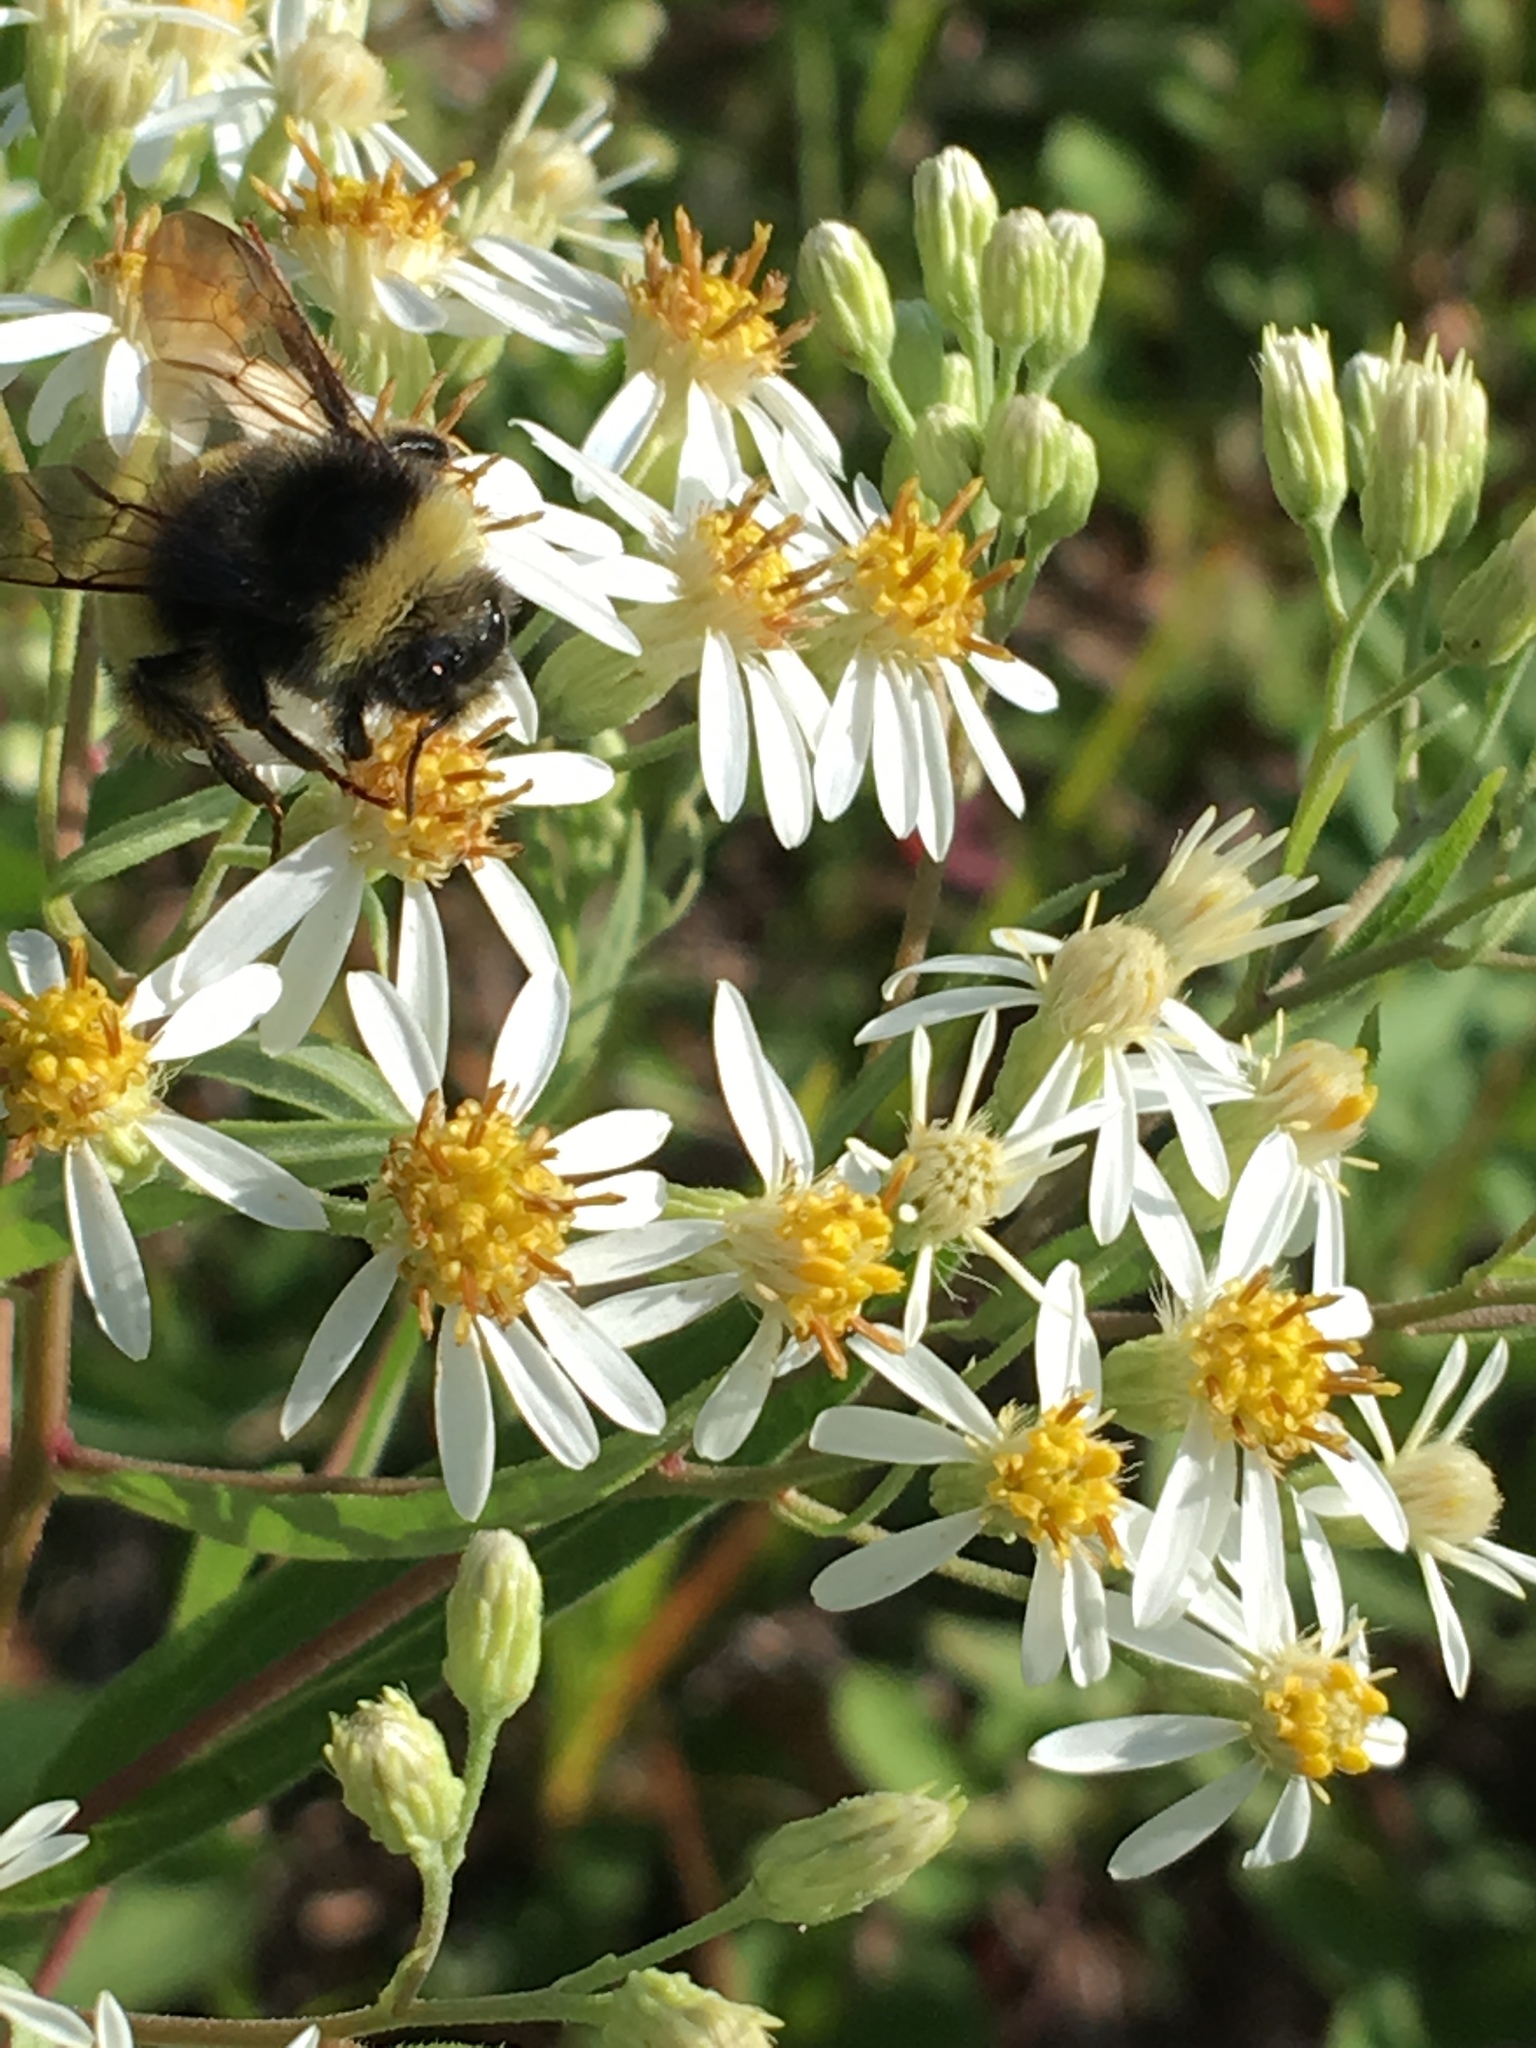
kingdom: Animalia
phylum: Arthropoda
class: Insecta
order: Hymenoptera
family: Apidae
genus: Bombus
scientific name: Bombus terricola
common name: Yellow-banded bumble bee
